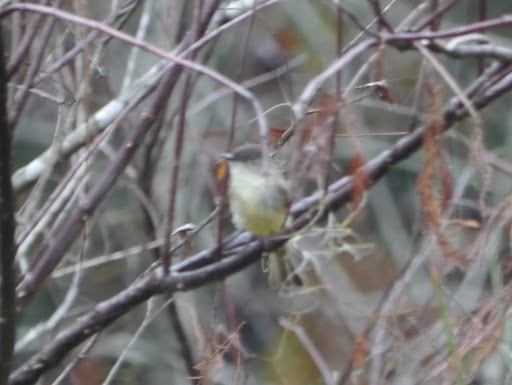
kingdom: Animalia
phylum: Chordata
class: Aves
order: Passeriformes
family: Tyrannidae
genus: Sayornis
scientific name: Sayornis phoebe
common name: Eastern phoebe
